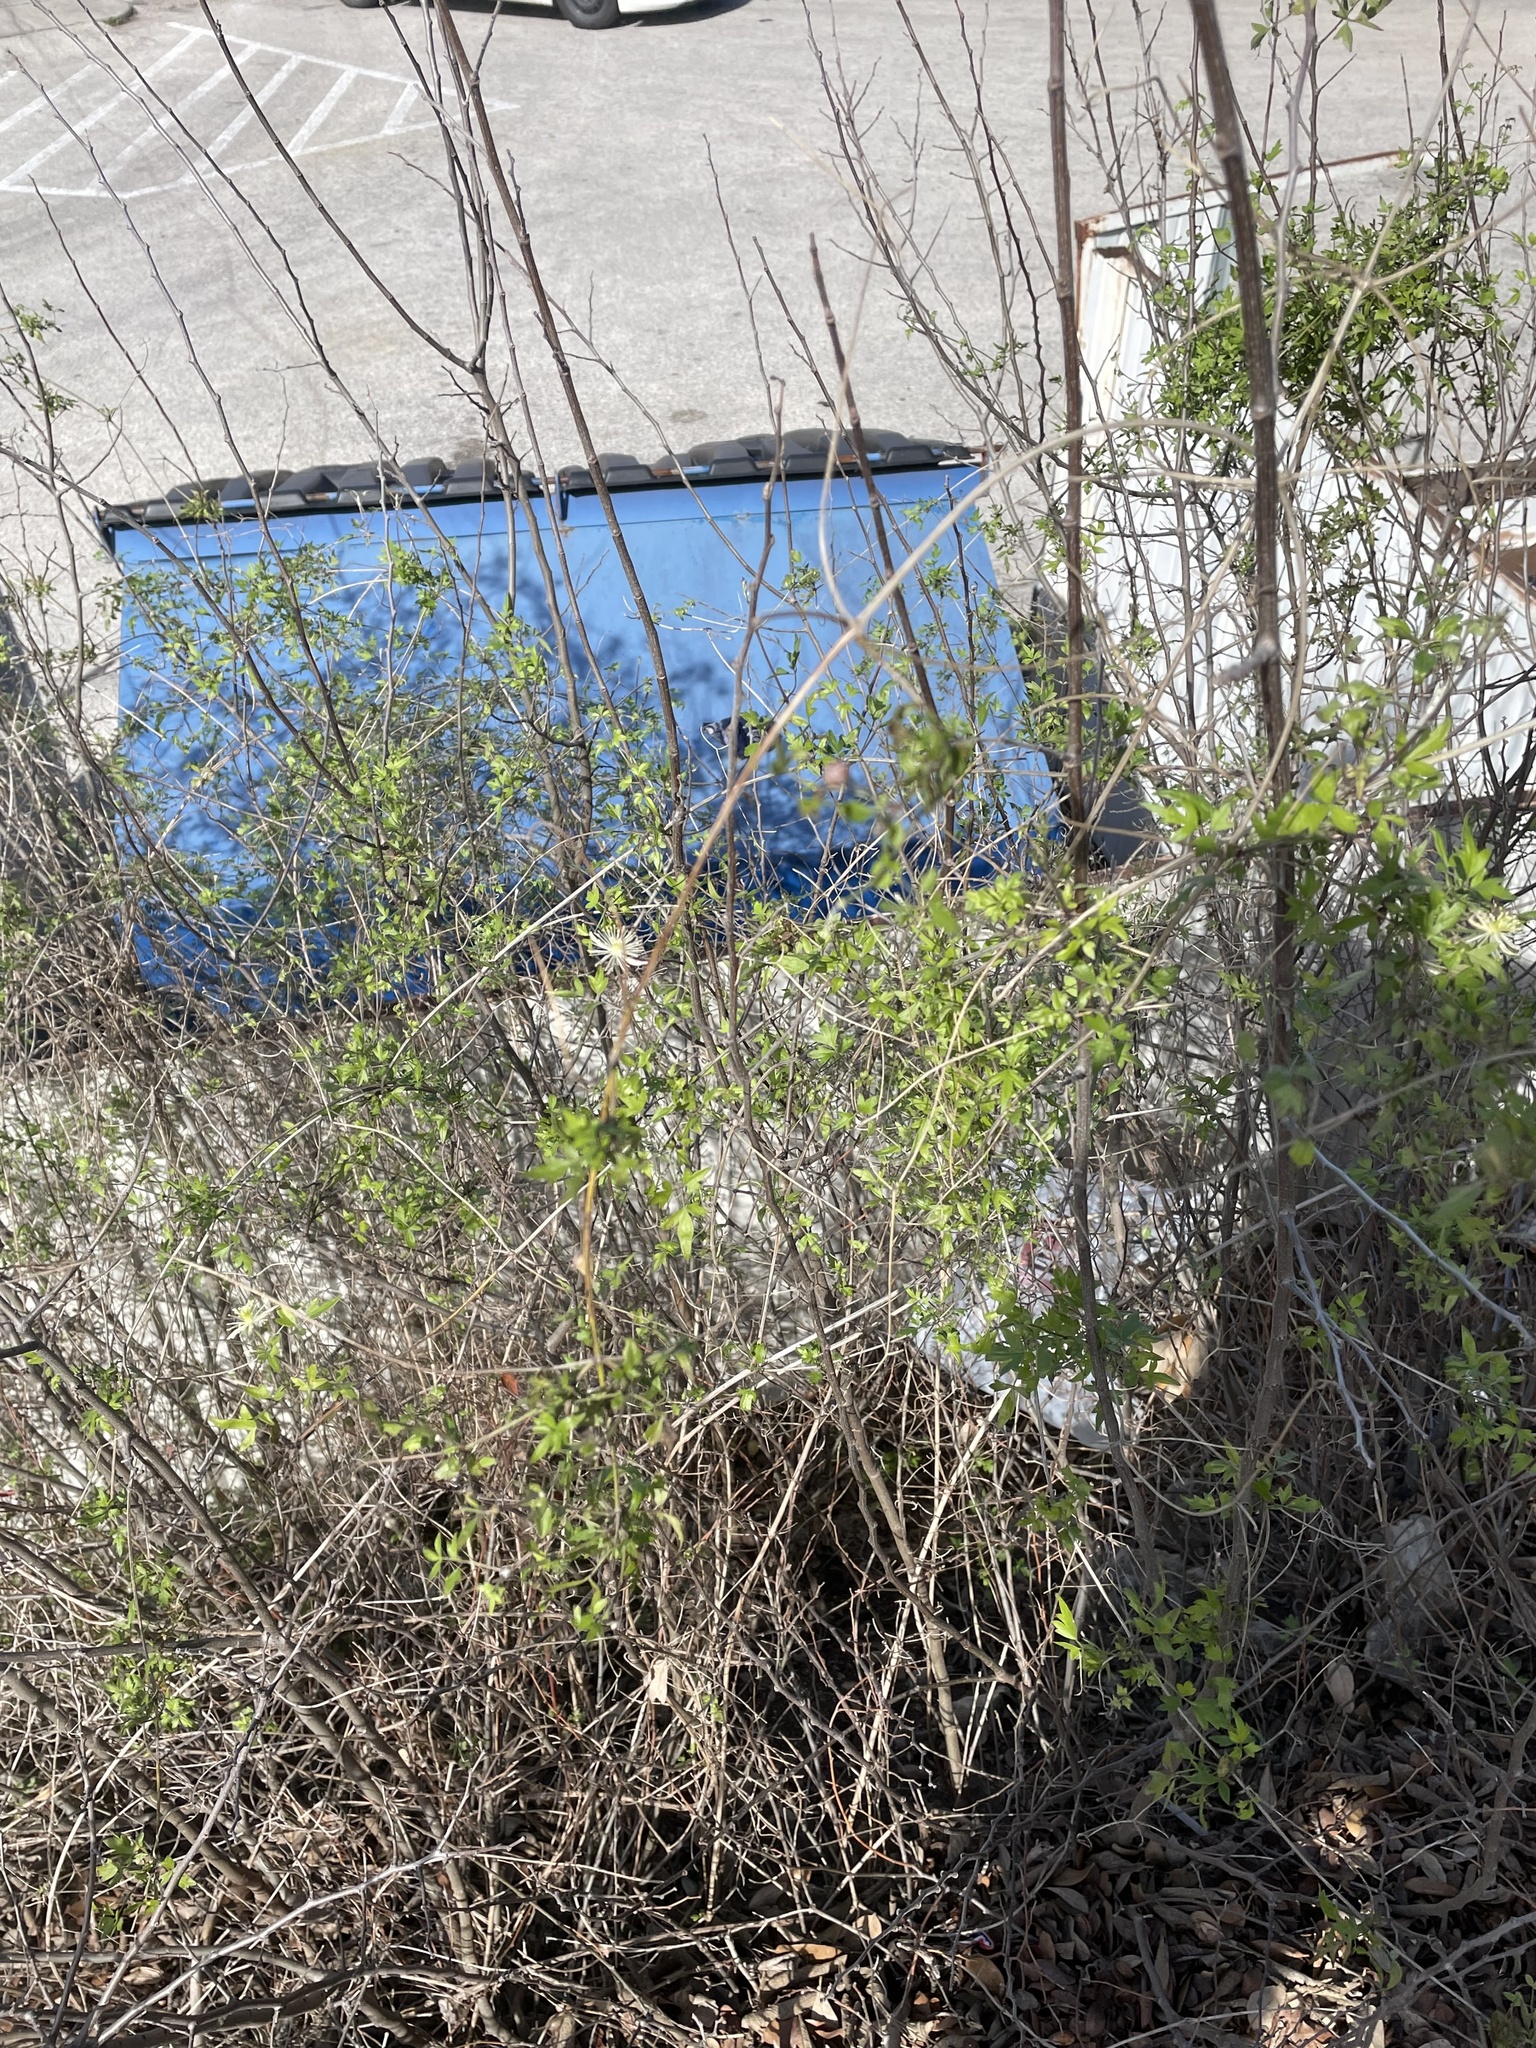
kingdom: Plantae
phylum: Tracheophyta
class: Magnoliopsida
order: Ranunculales
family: Ranunculaceae
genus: Clematis
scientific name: Clematis drummondii
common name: Texas virgin's bower
